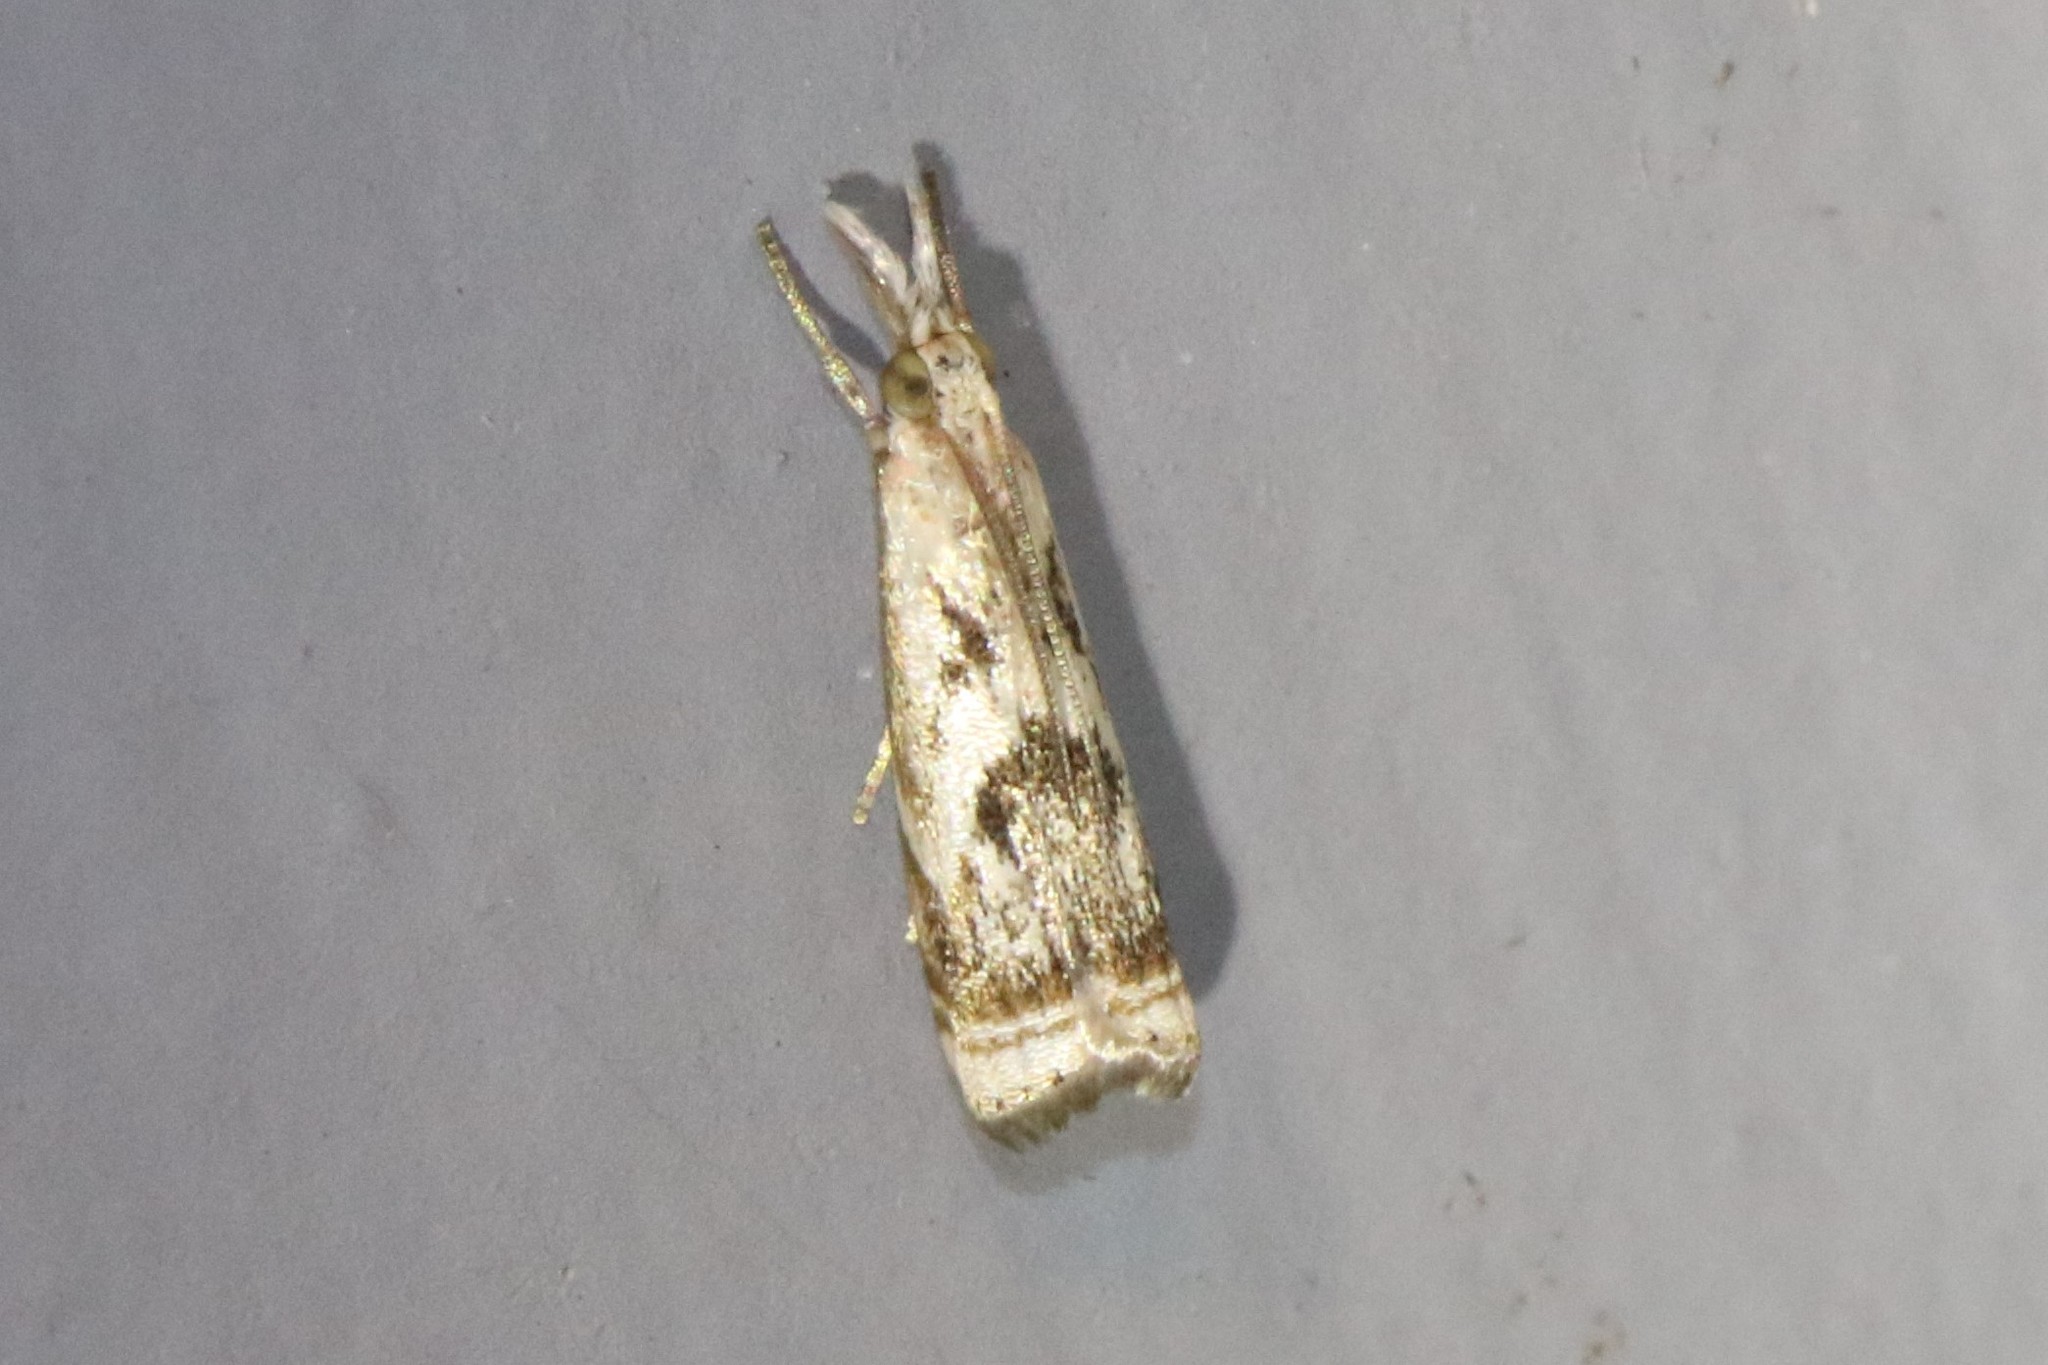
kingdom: Animalia
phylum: Arthropoda
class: Insecta
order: Lepidoptera
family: Crambidae
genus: Microcrambus
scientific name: Microcrambus elegans
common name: Elegant grass-veneer
